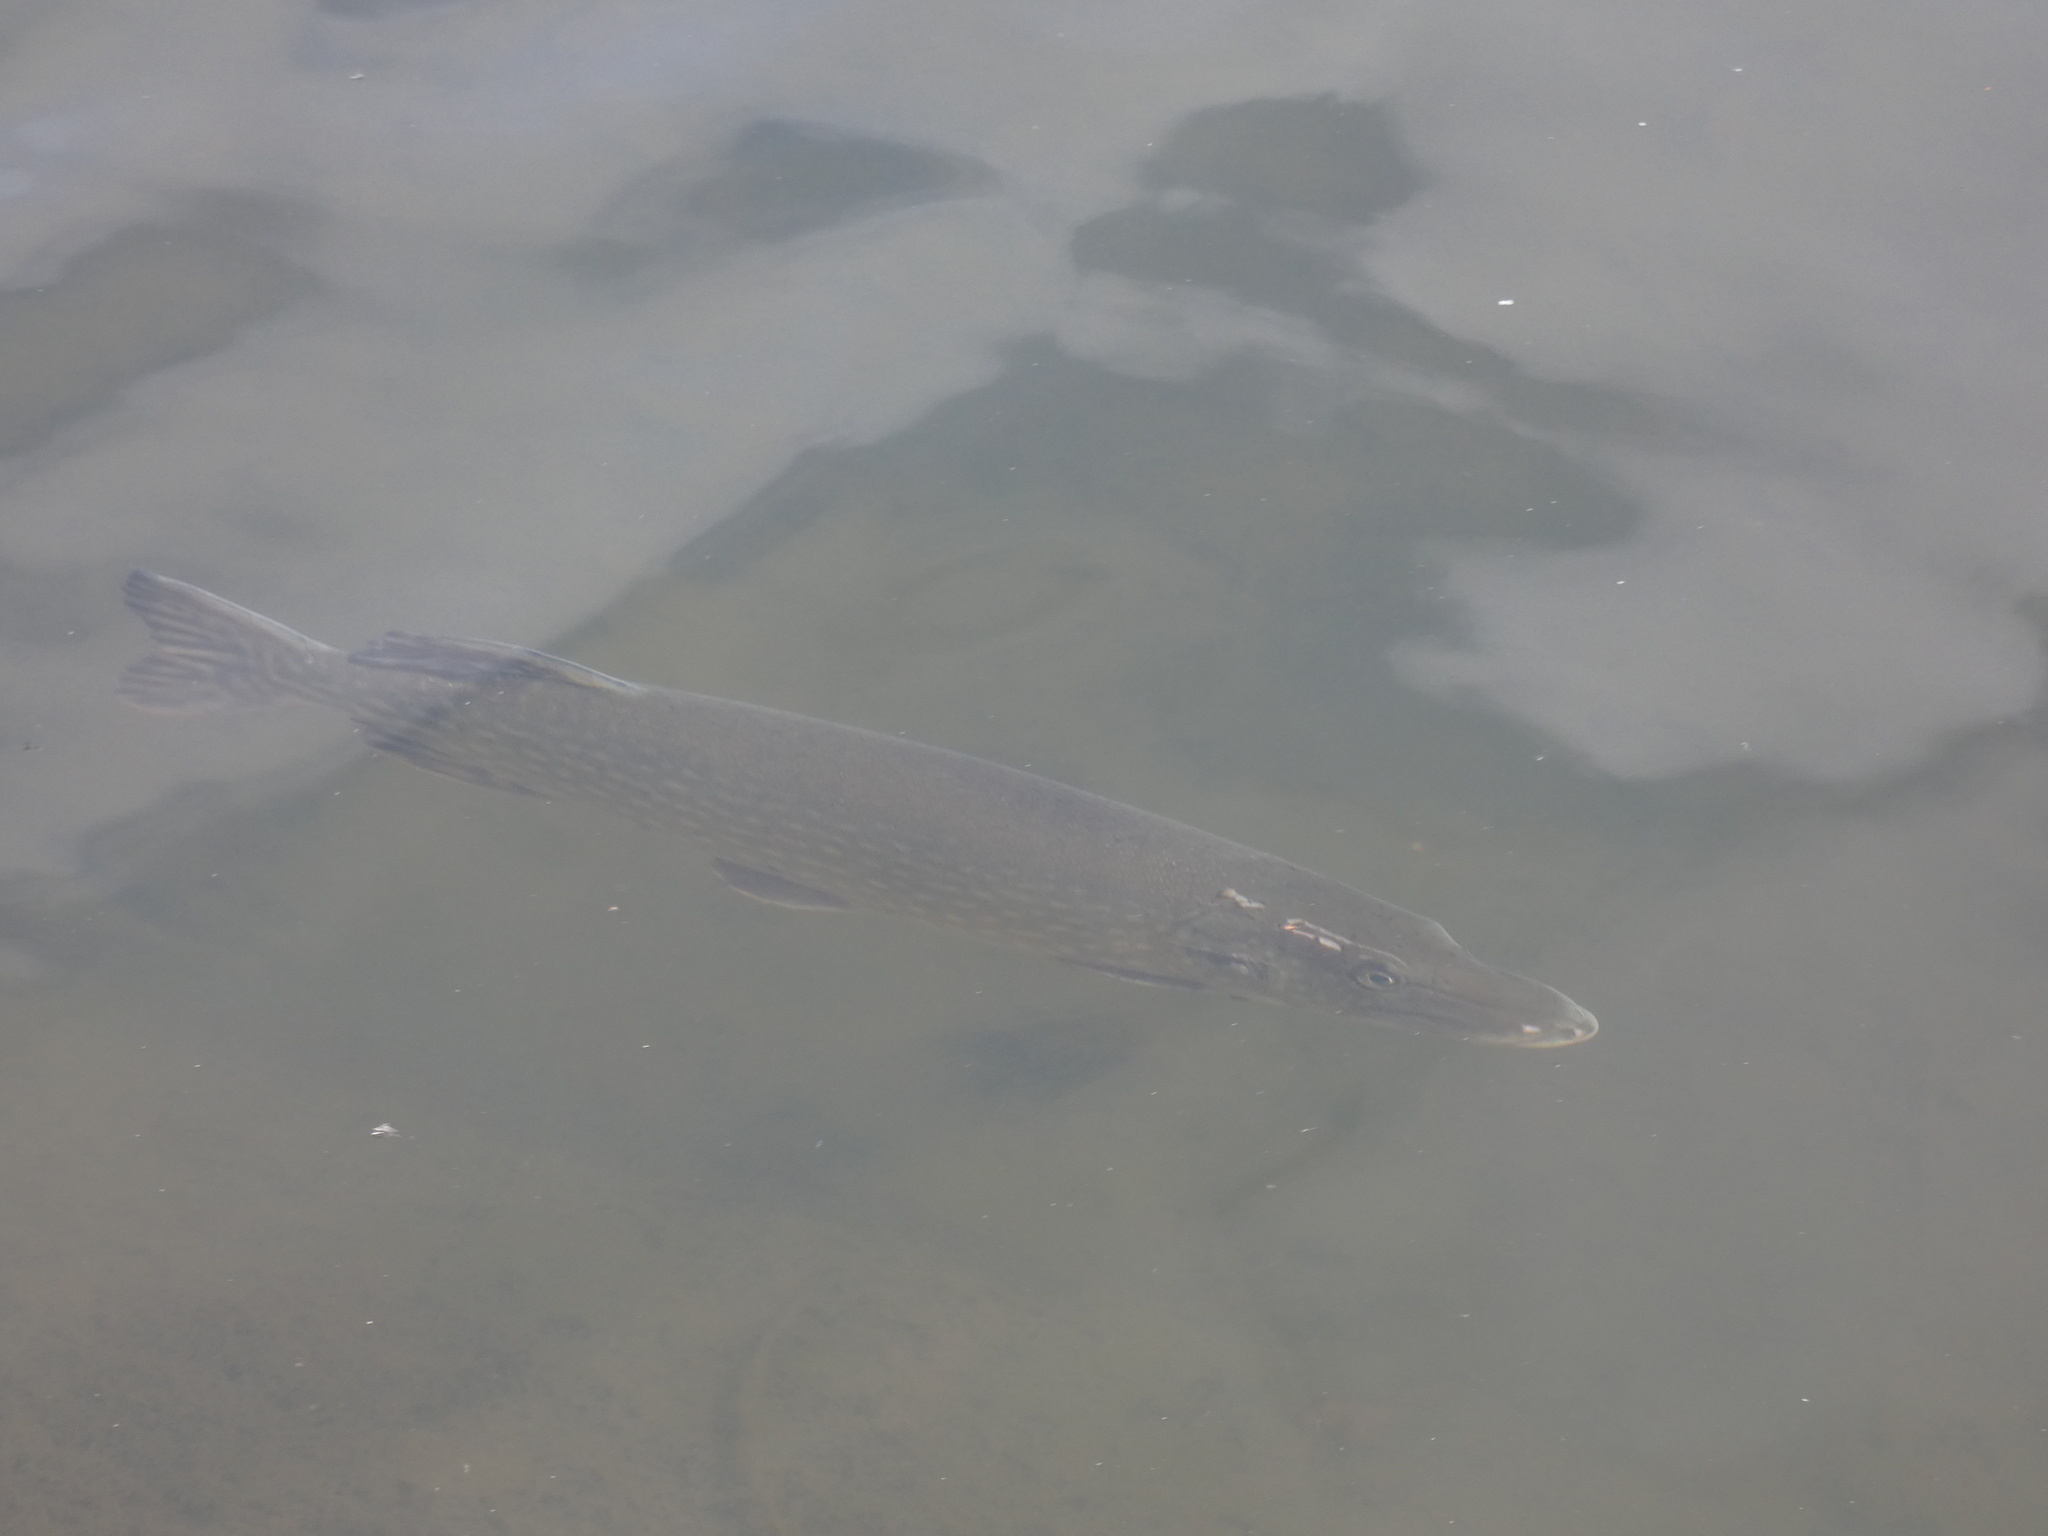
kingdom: Animalia
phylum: Chordata
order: Esociformes
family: Esocidae
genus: Esox
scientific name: Esox lucius
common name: Northern pike
